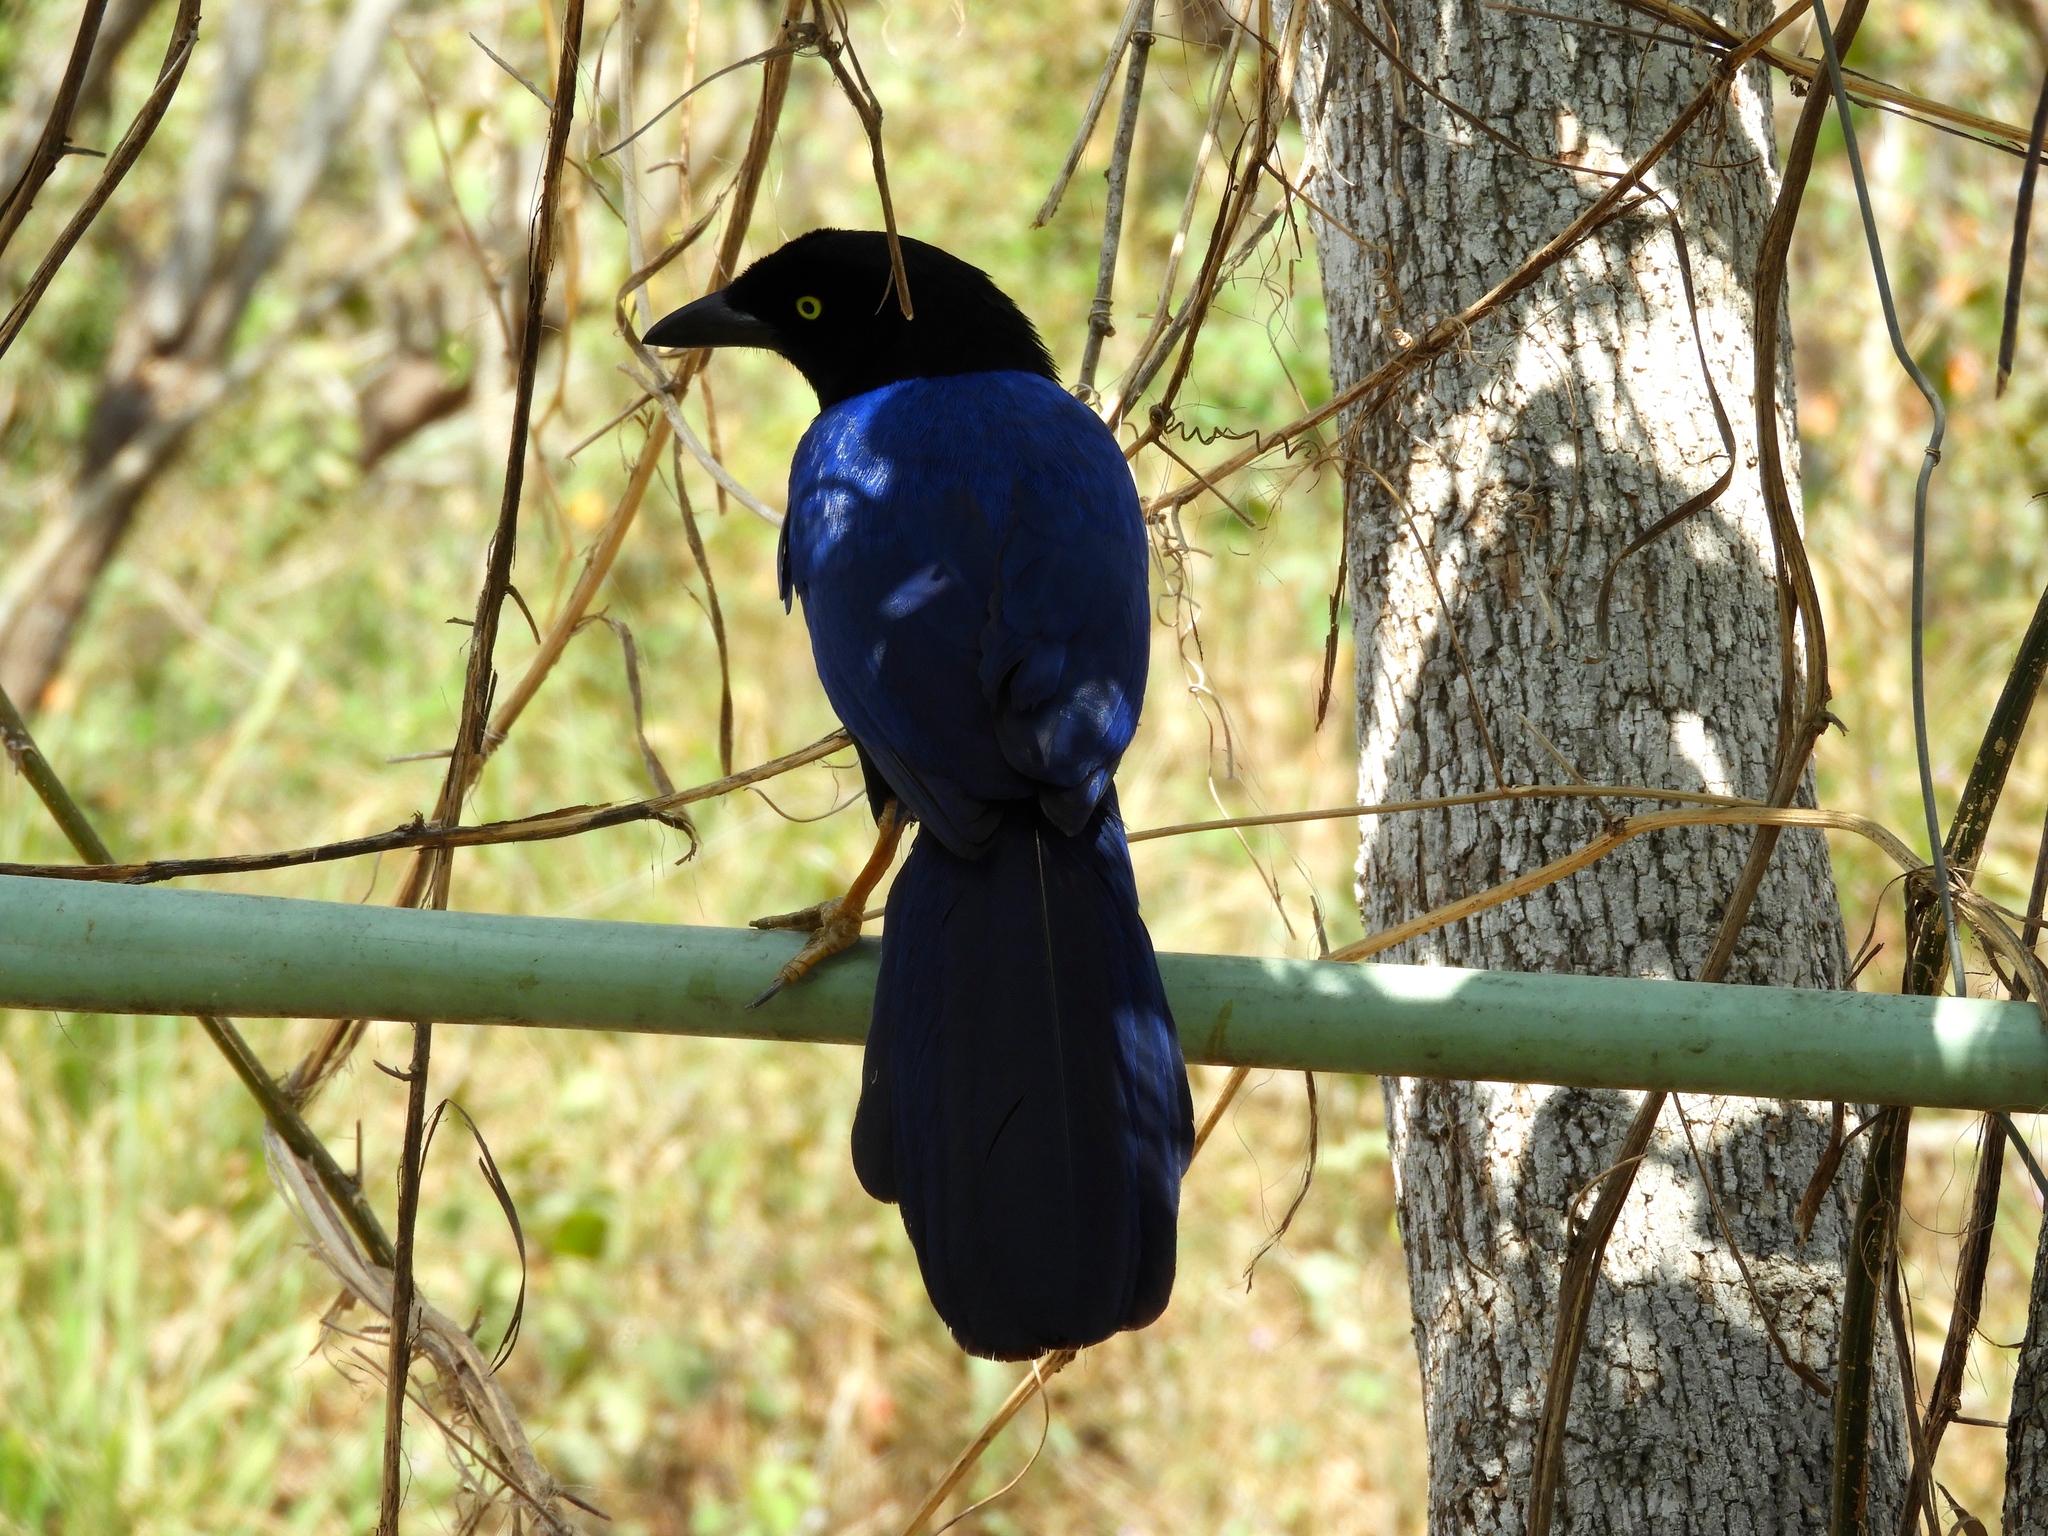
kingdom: Animalia
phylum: Chordata
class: Aves
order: Passeriformes
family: Corvidae
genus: Cyanocorax
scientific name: Cyanocorax beecheii
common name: Purplish-backed jay
